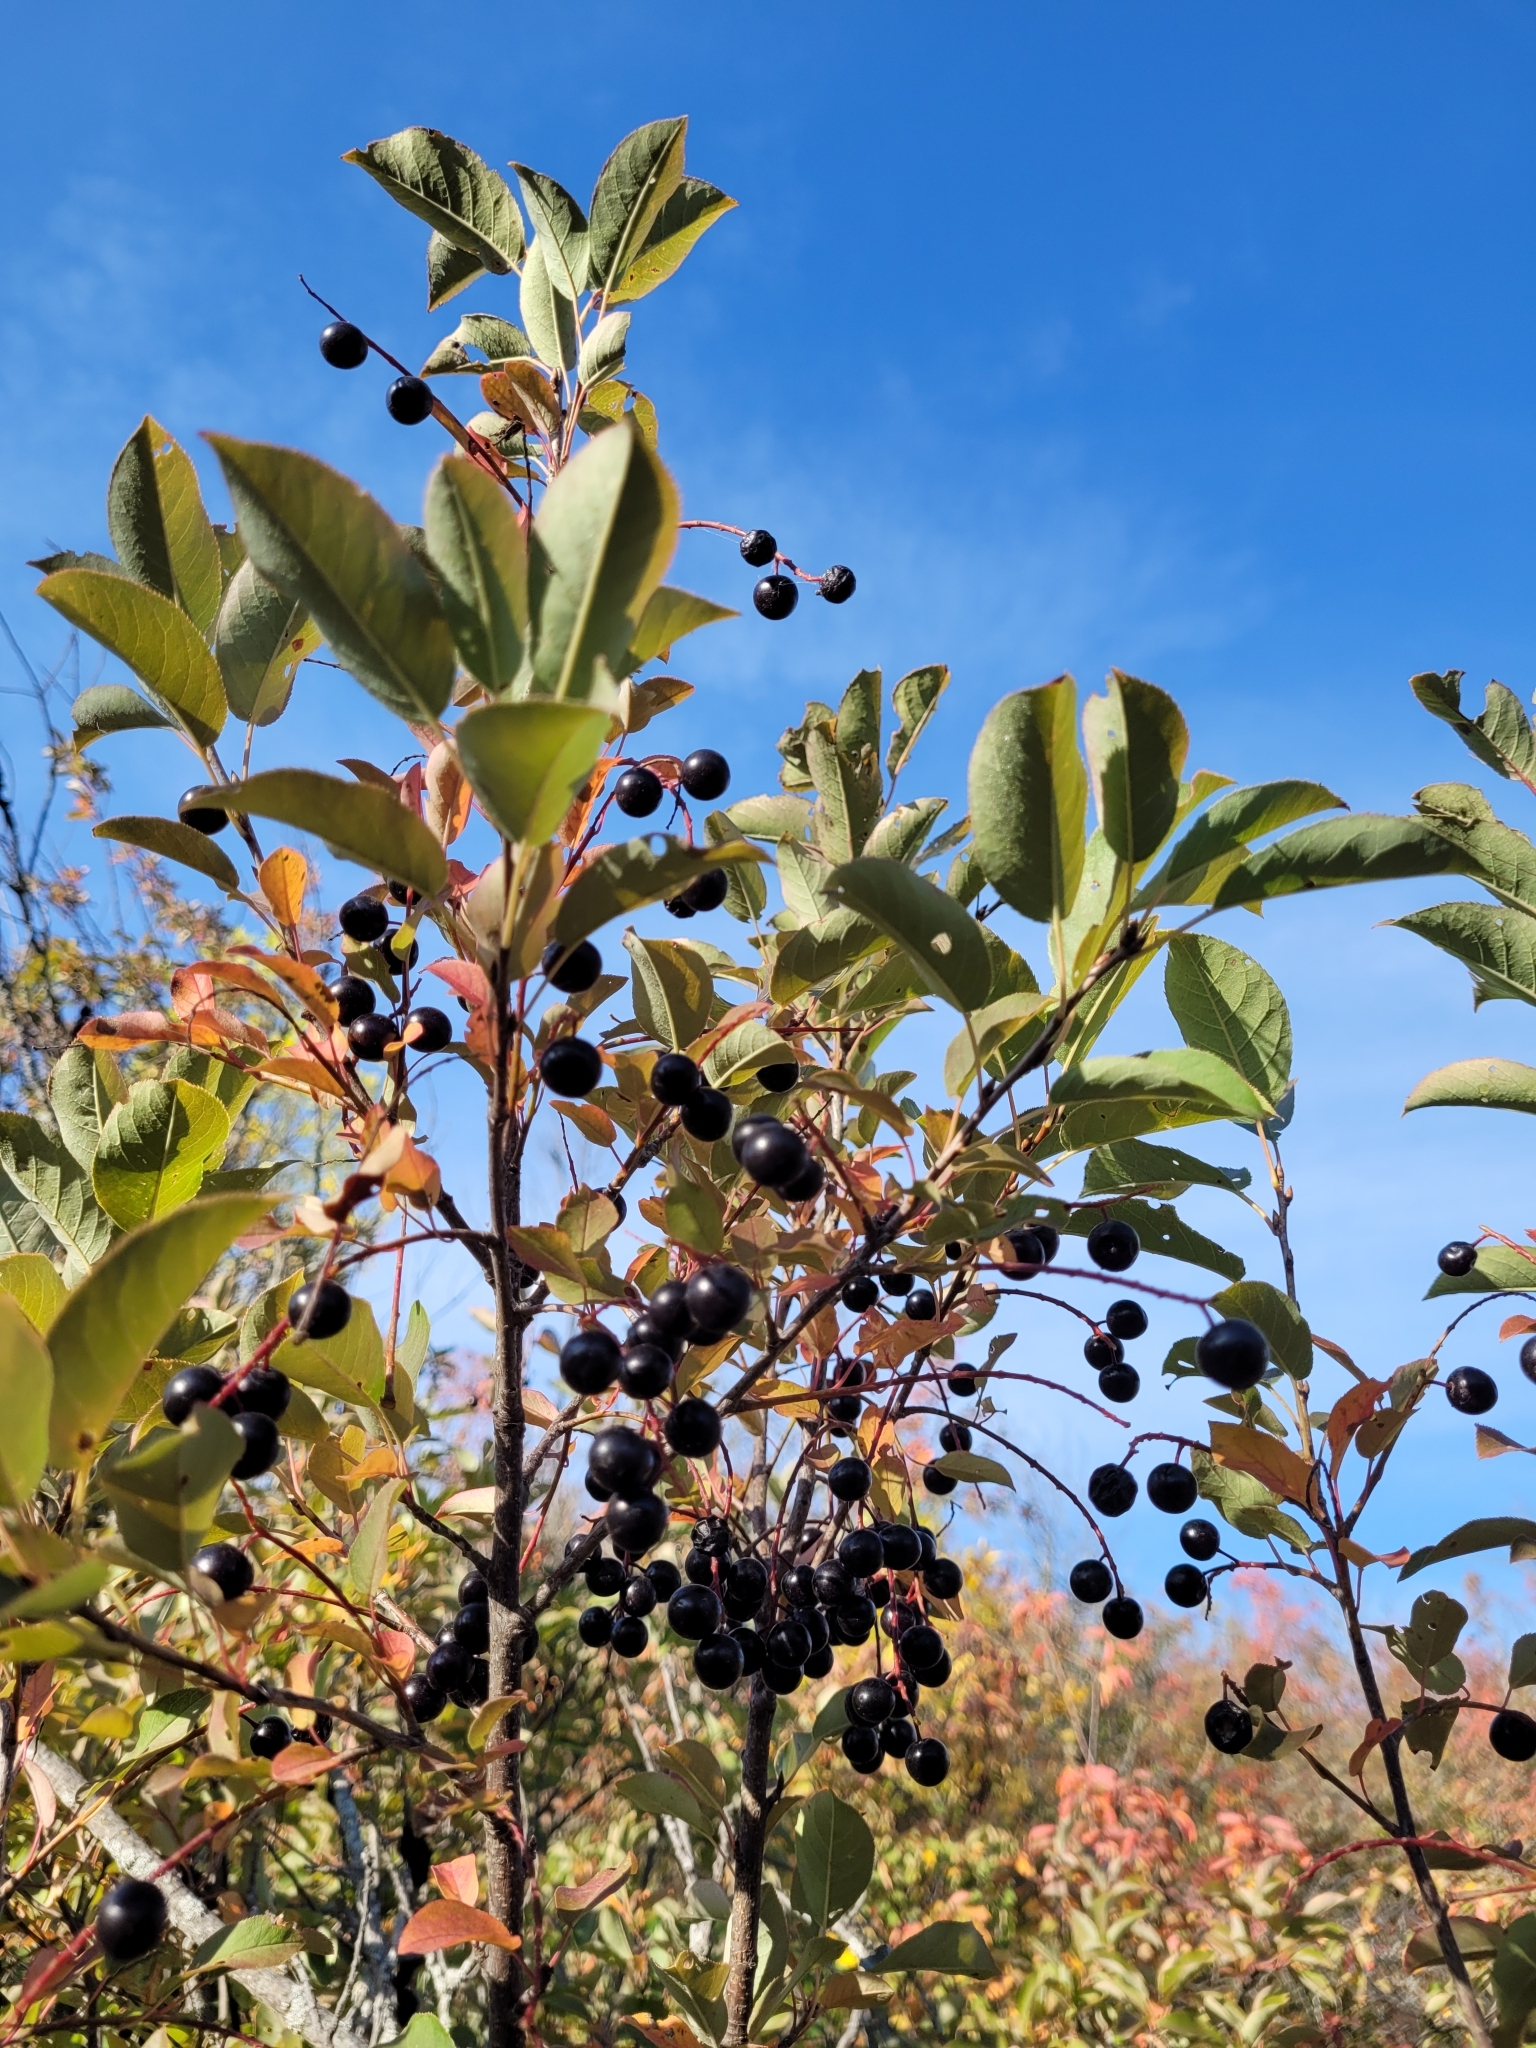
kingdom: Plantae
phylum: Tracheophyta
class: Magnoliopsida
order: Rosales
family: Rosaceae
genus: Prunus
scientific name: Prunus virginiana
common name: Chokecherry
